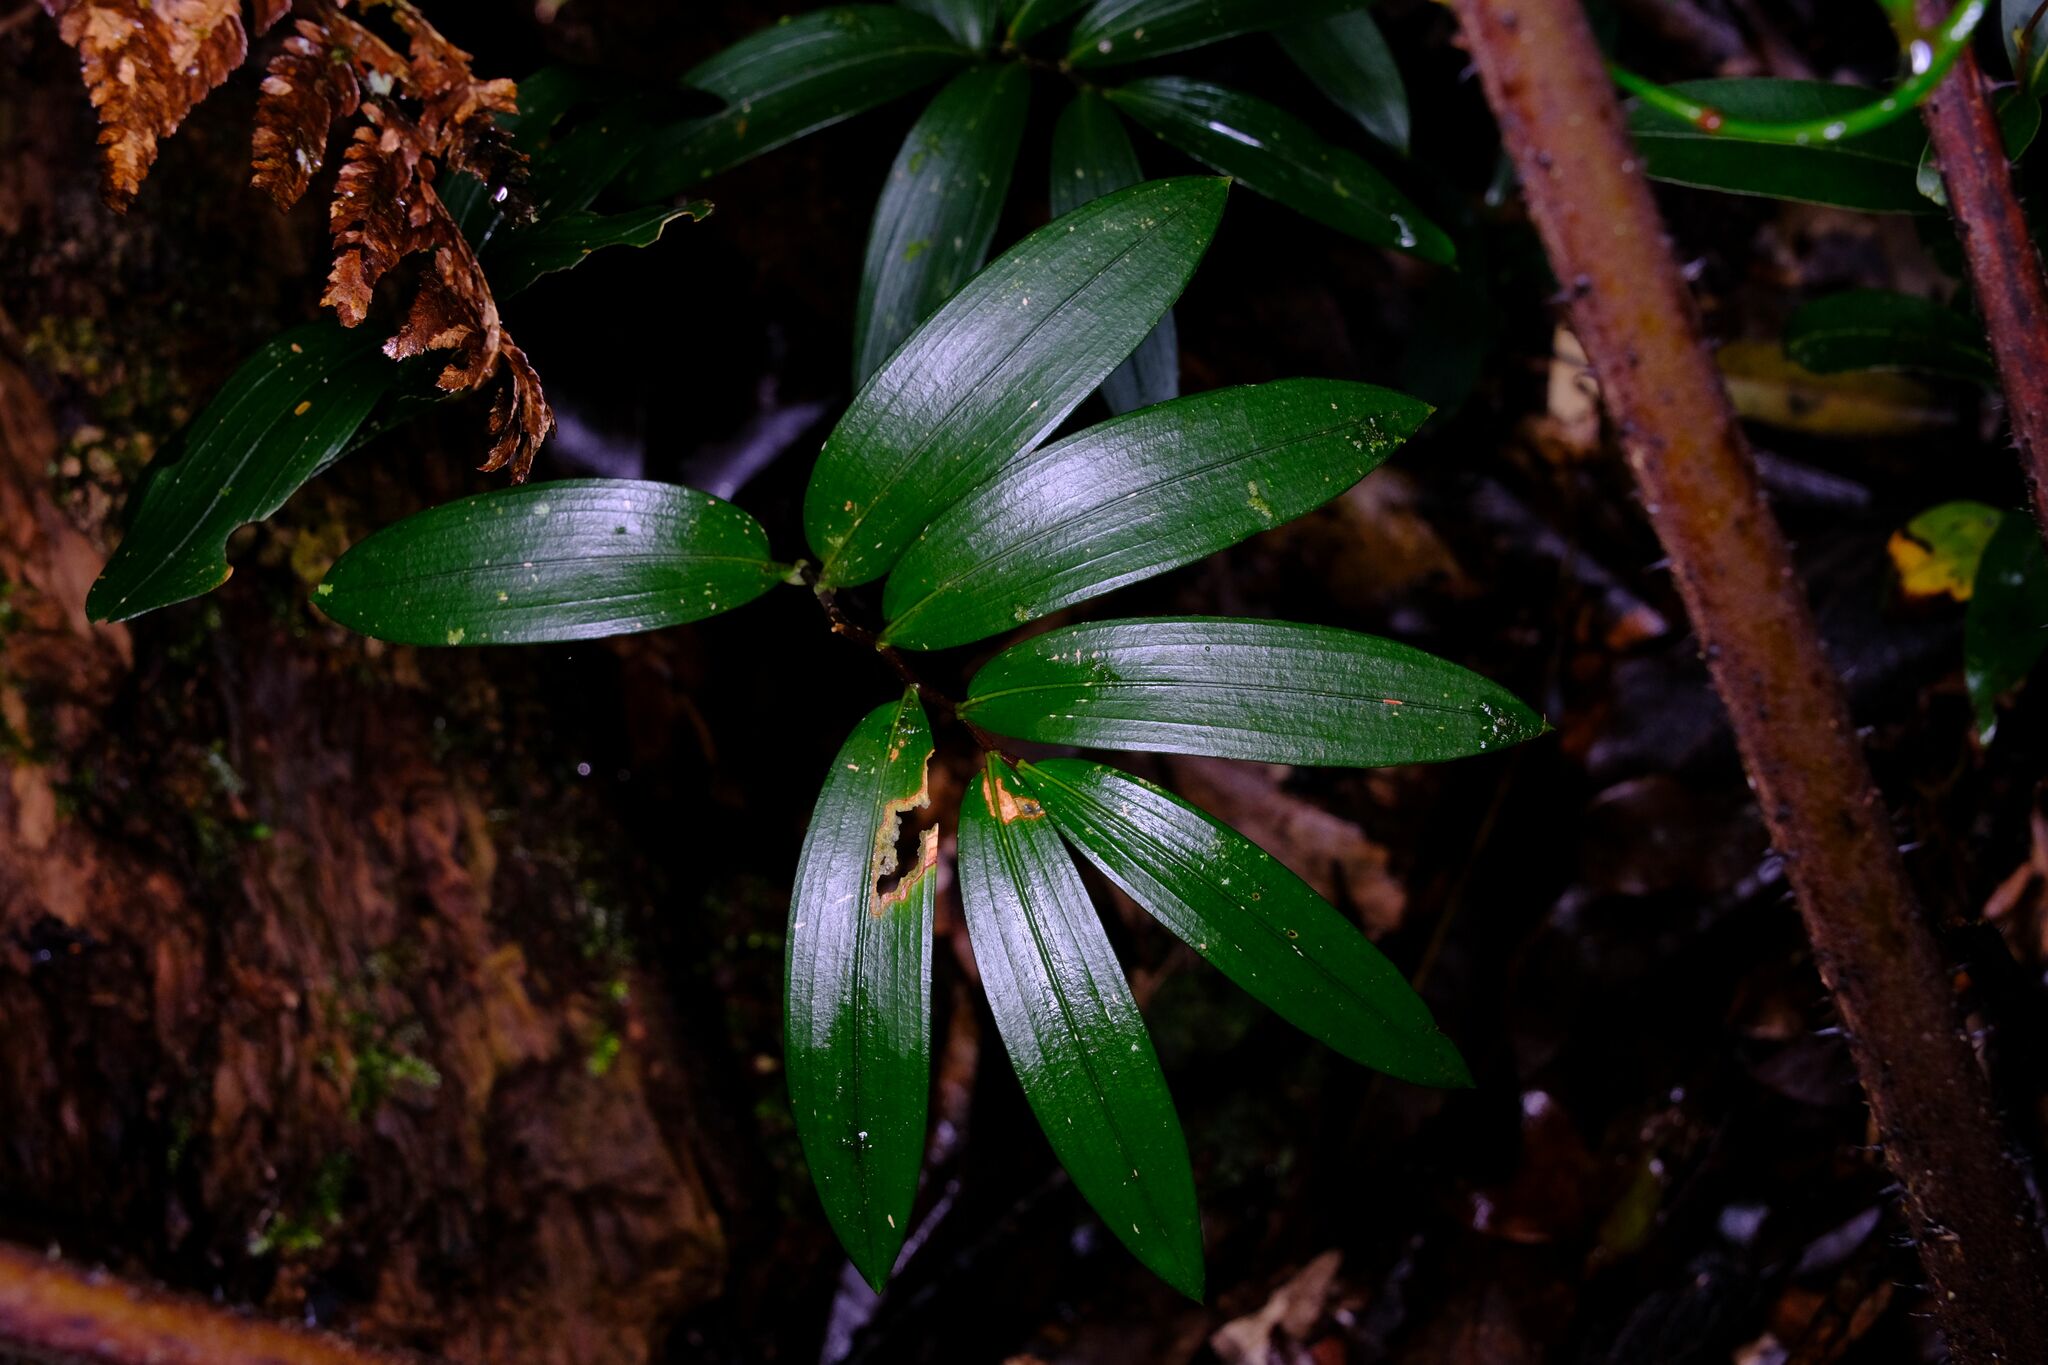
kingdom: Plantae
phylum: Tracheophyta
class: Liliopsida
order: Liliales
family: Alstroemeriaceae
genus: Drymophila
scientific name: Drymophila moorei
